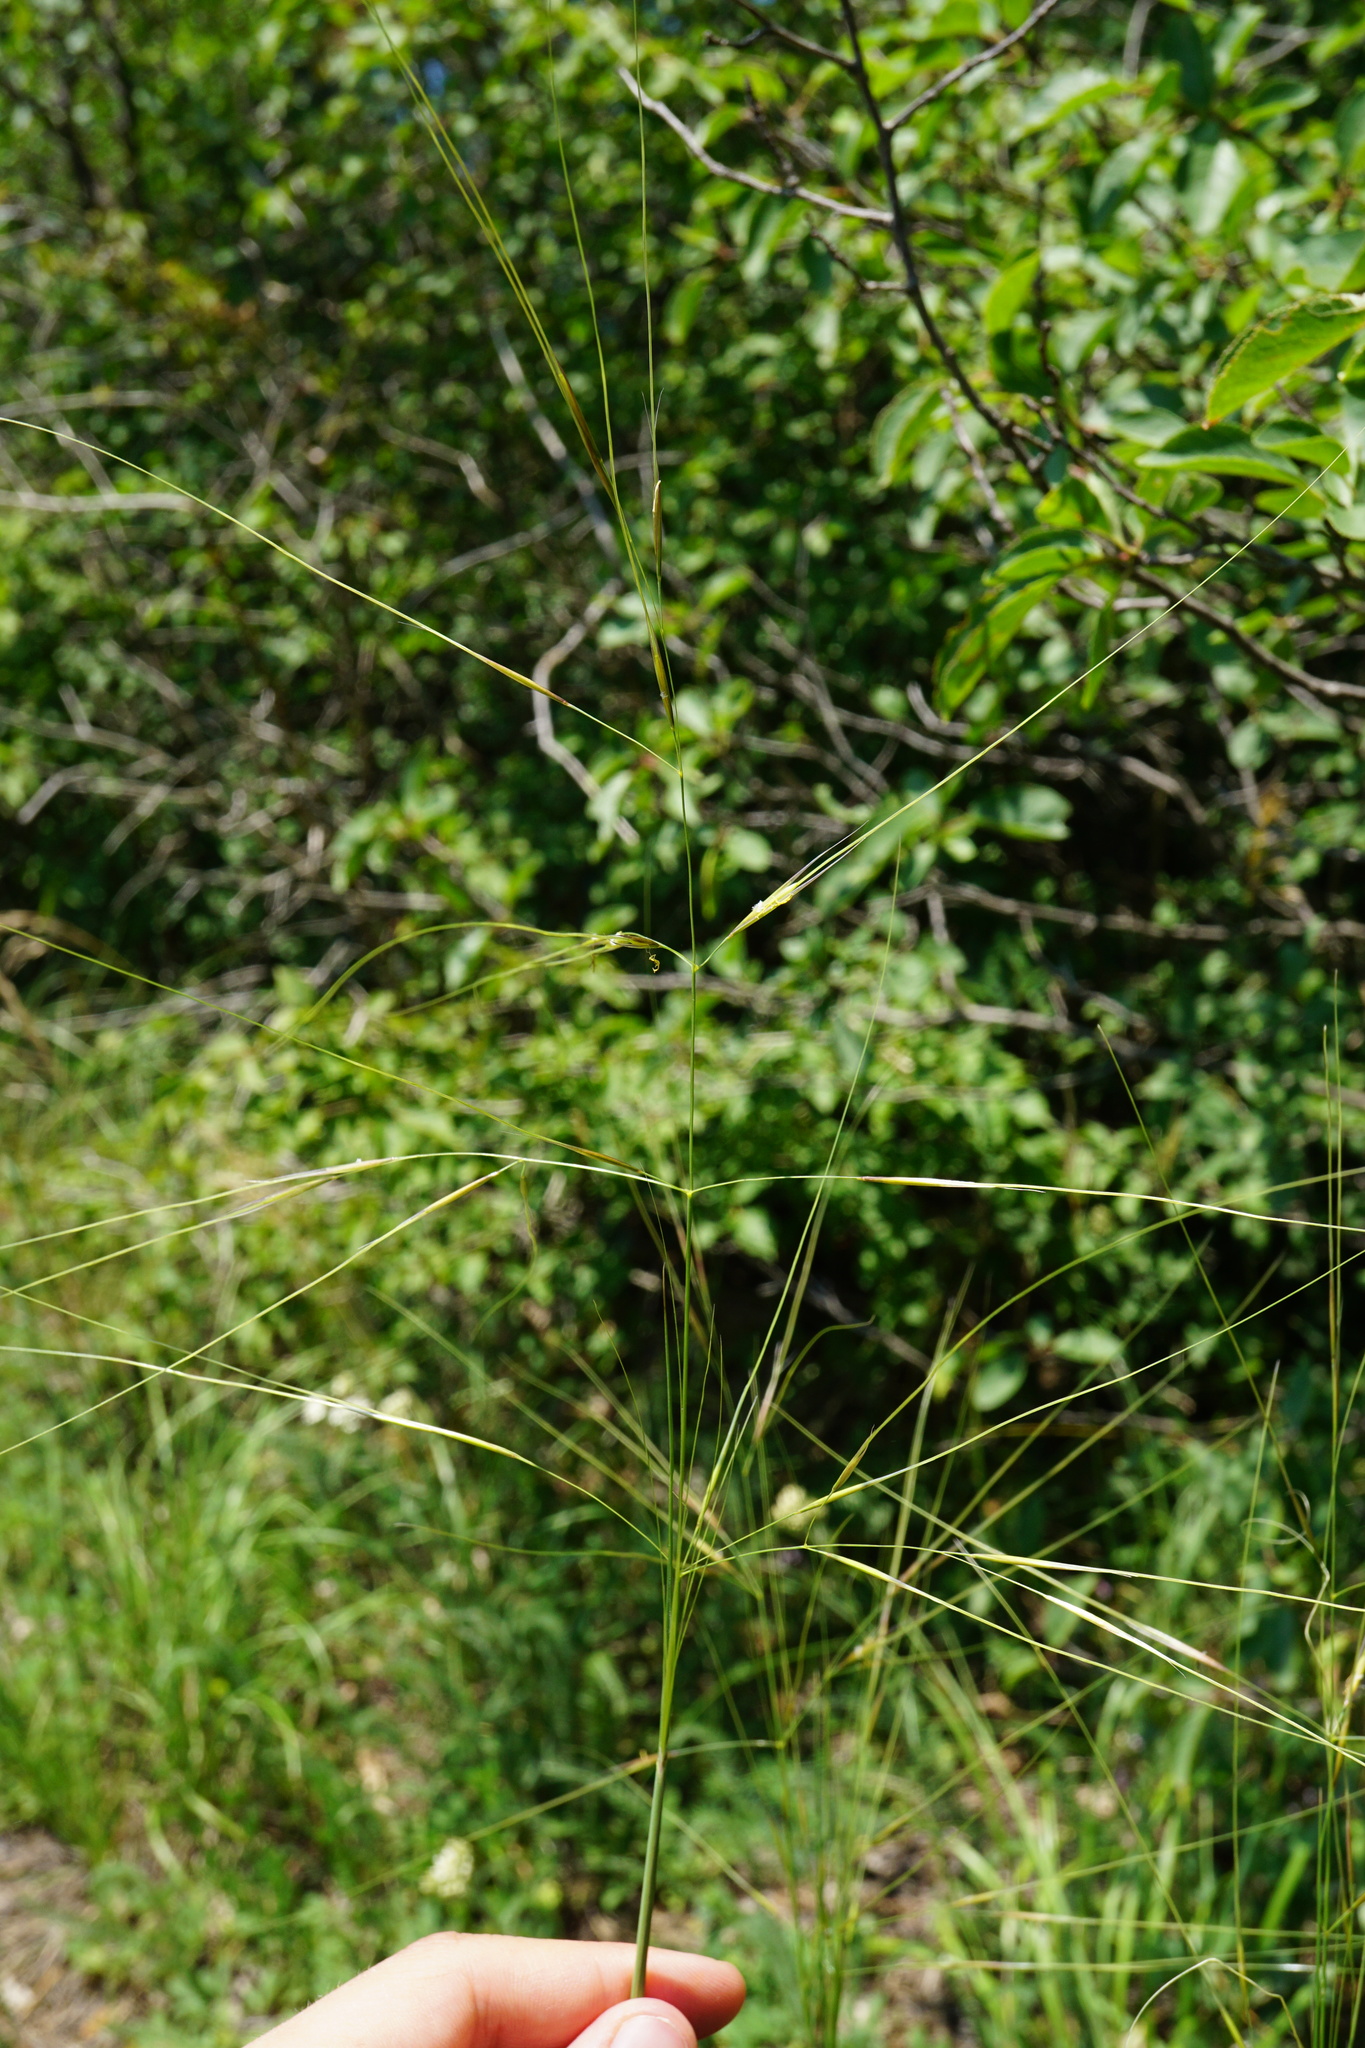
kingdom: Plantae
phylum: Tracheophyta
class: Liliopsida
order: Poales
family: Poaceae
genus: Stipa
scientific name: Stipa capillata
